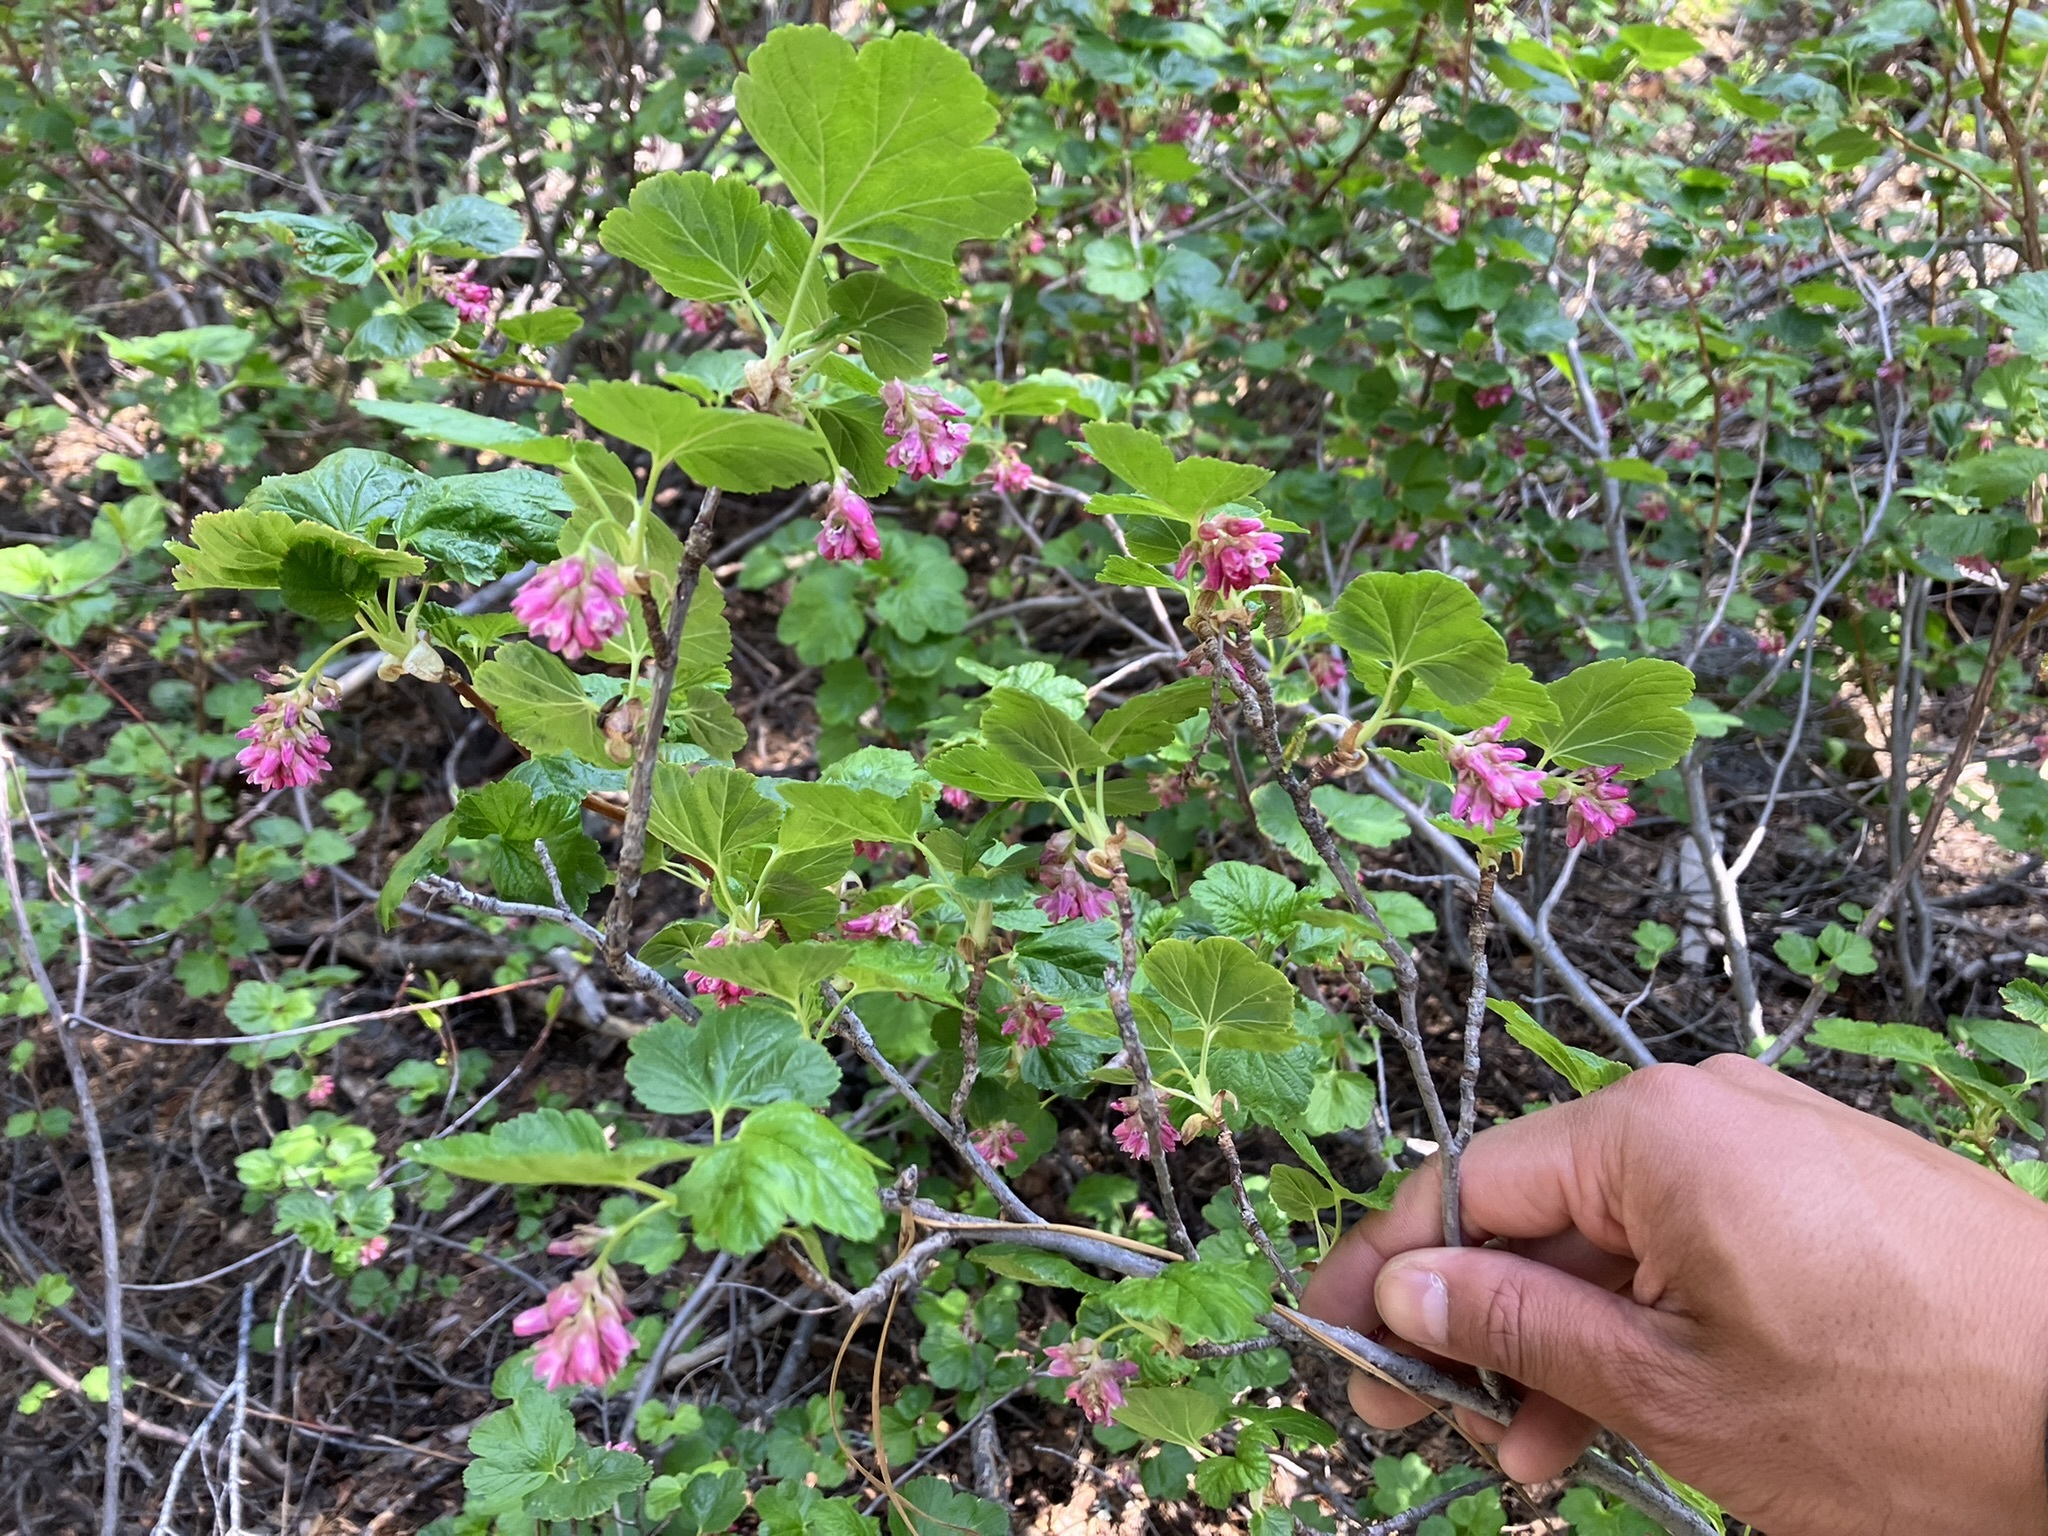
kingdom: Plantae
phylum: Tracheophyta
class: Magnoliopsida
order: Saxifragales
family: Grossulariaceae
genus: Ribes
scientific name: Ribes nevadense
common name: Mountain pink currant
